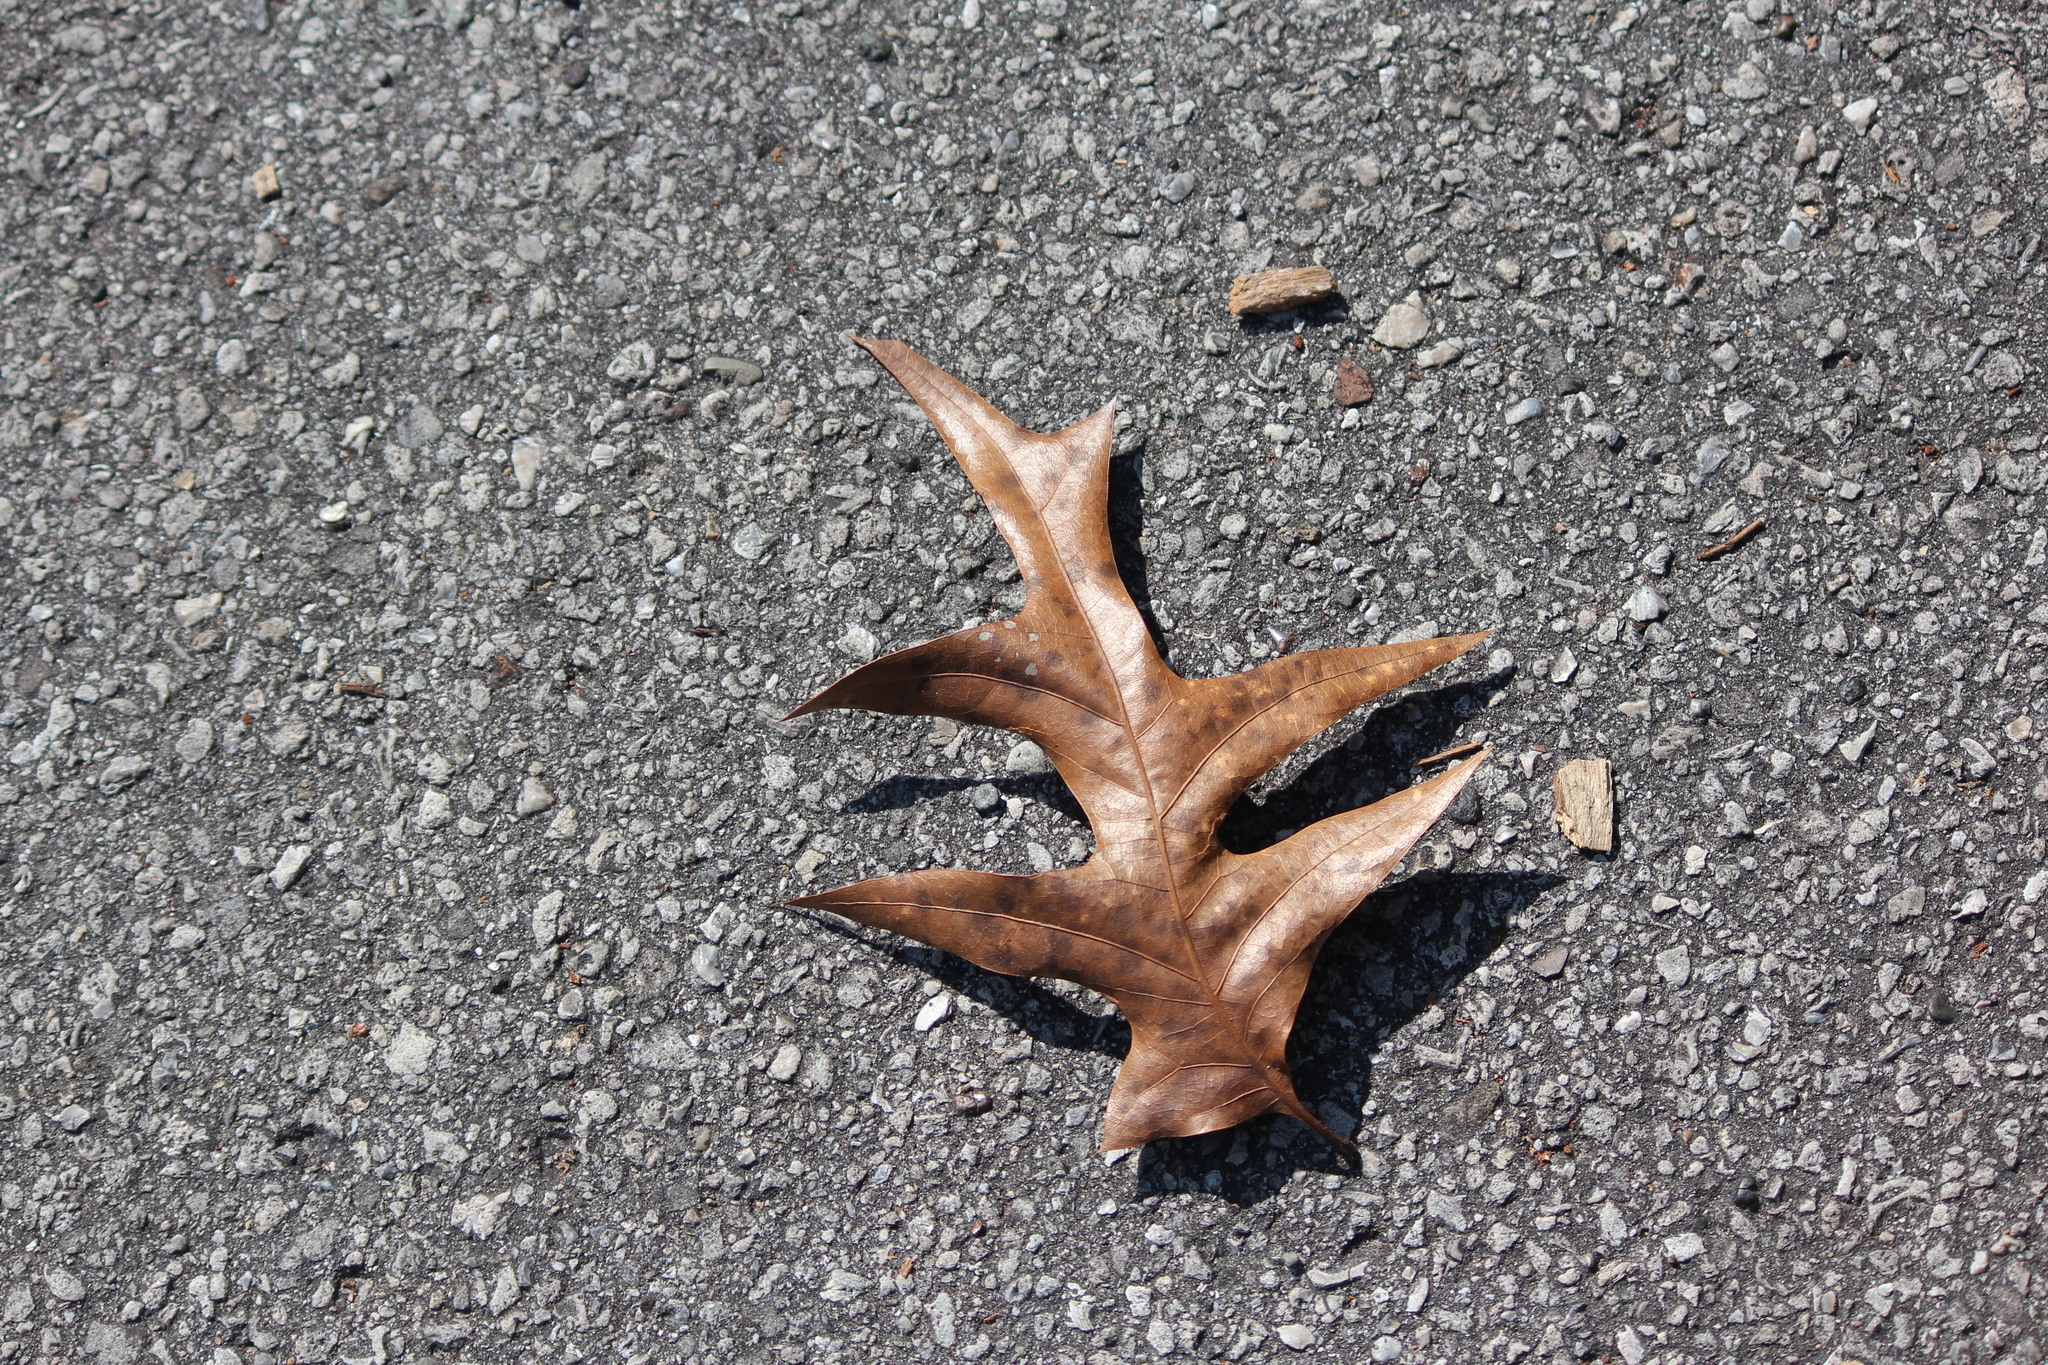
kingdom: Plantae
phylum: Tracheophyta
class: Magnoliopsida
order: Fagales
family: Fagaceae
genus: Quercus
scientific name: Quercus laevis
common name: Turkey oak
